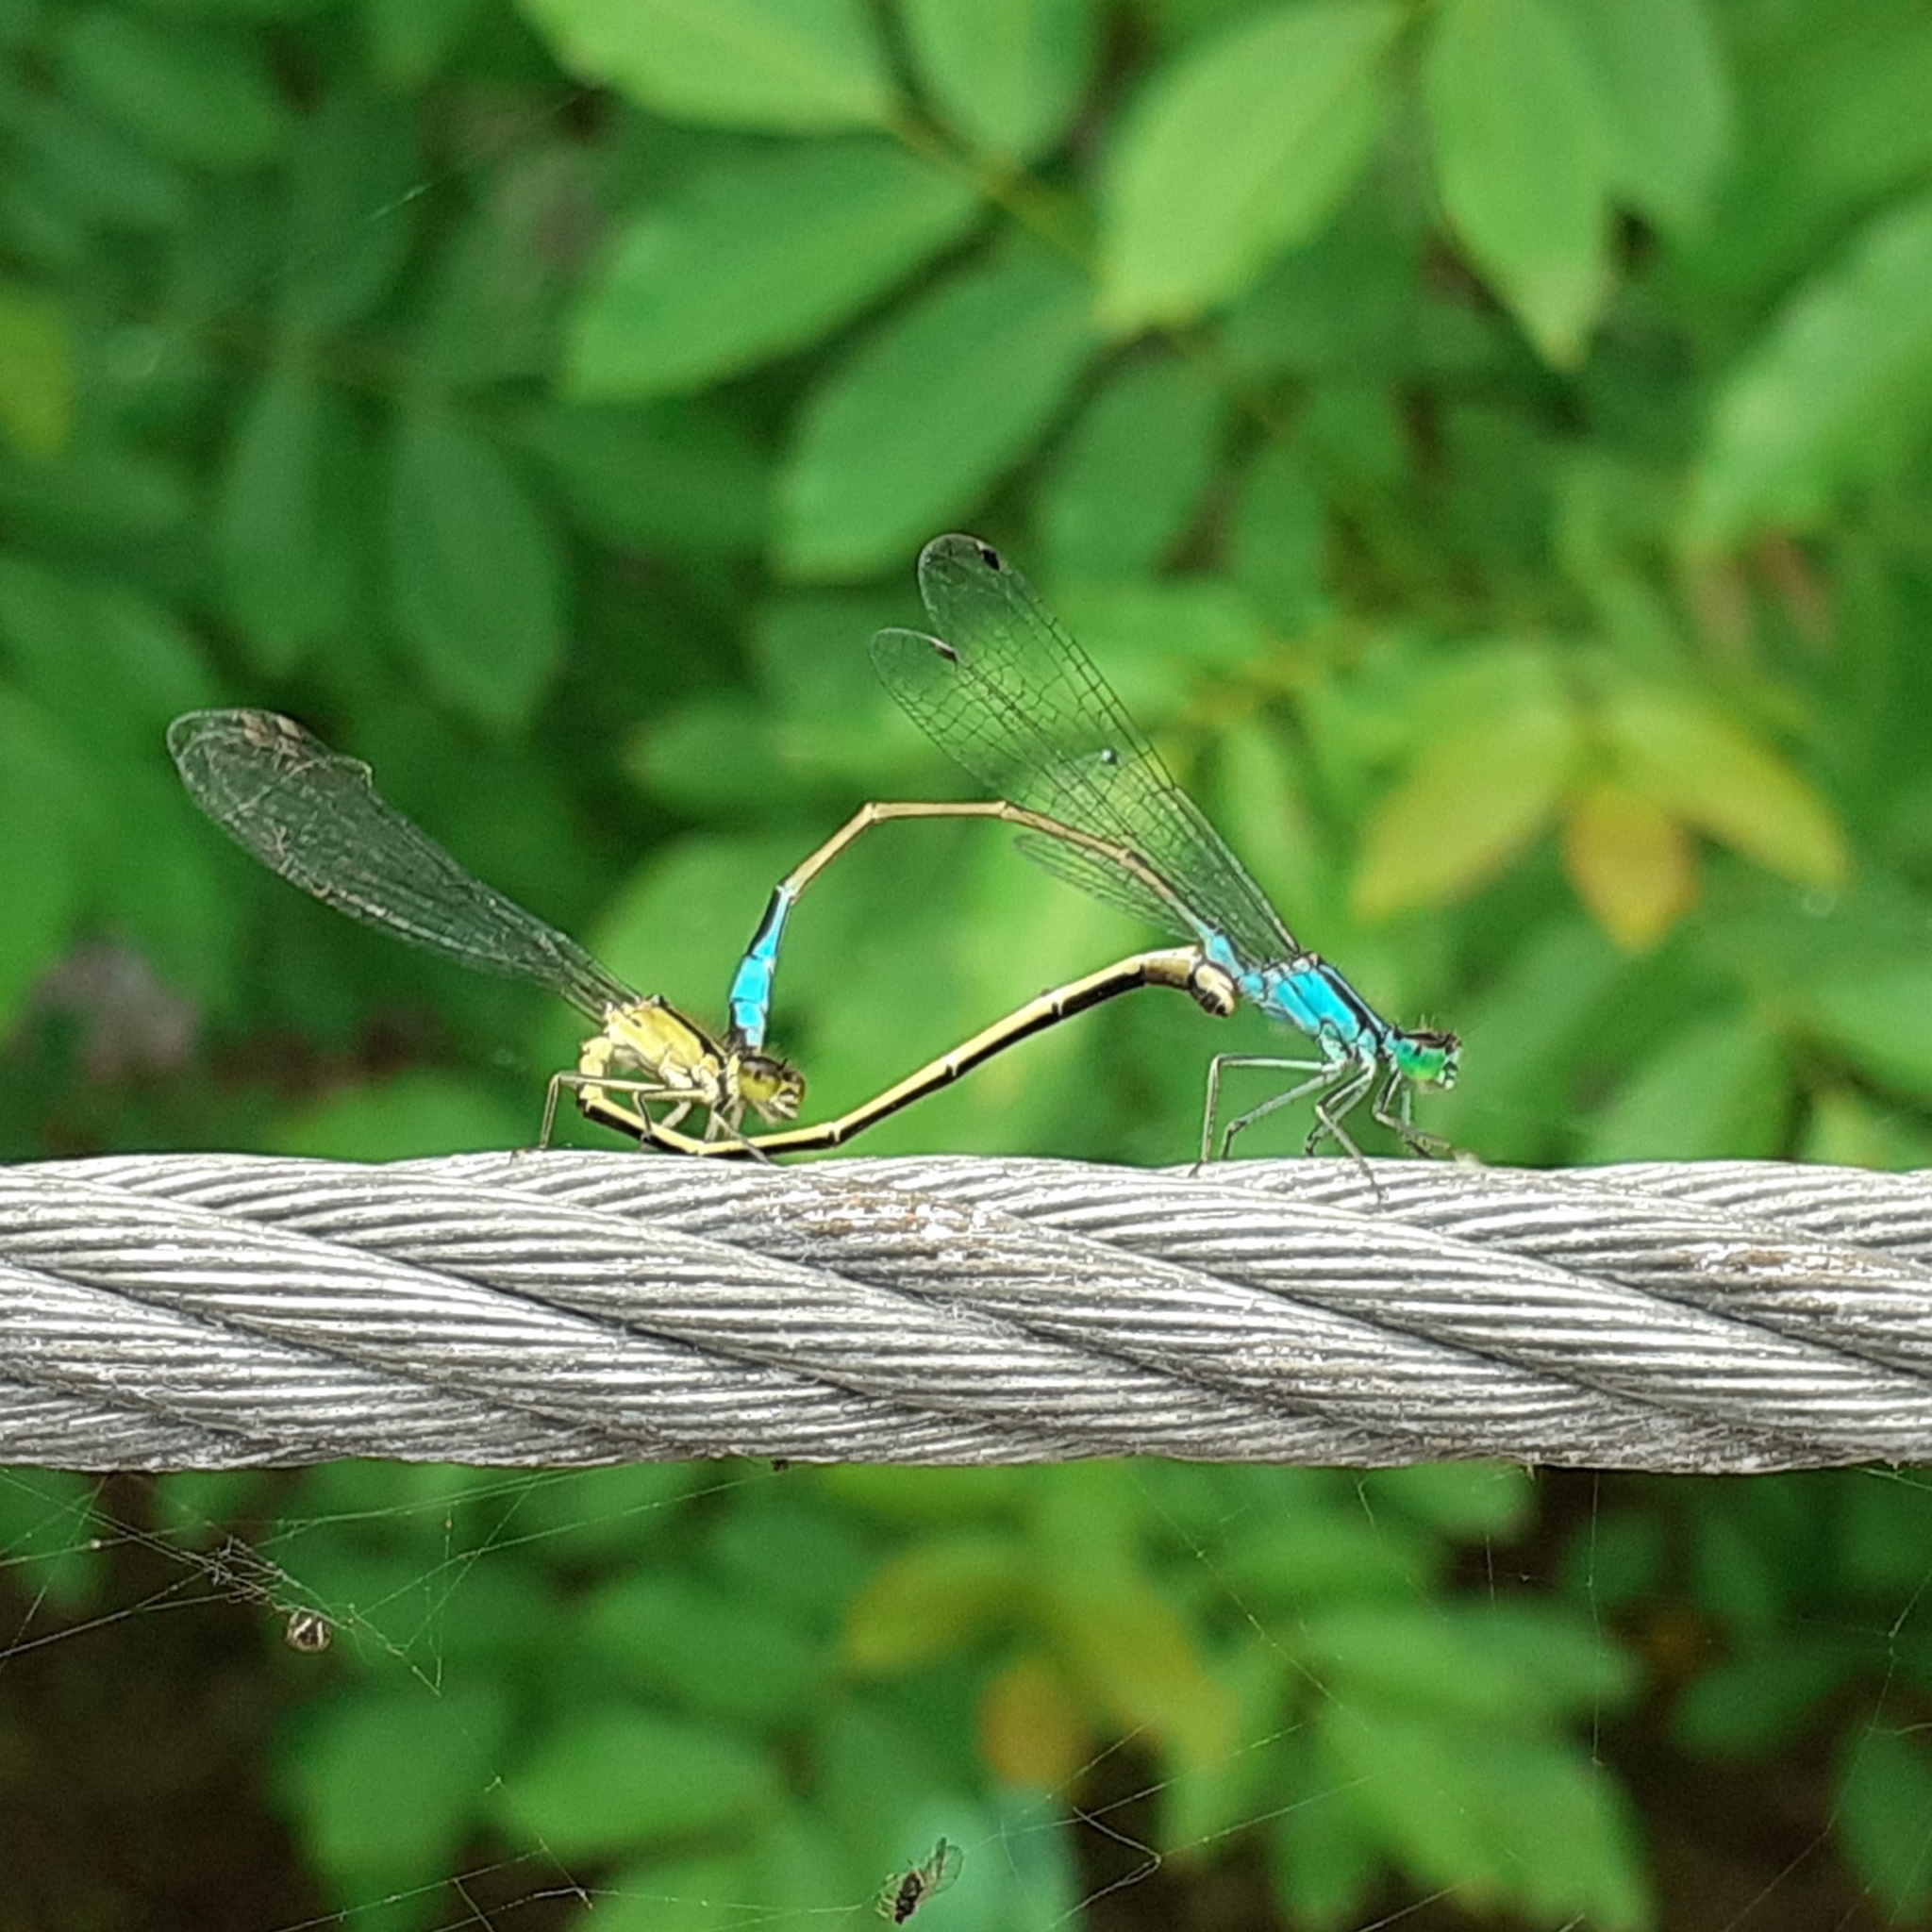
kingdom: Animalia
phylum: Arthropoda
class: Insecta
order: Odonata
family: Coenagrionidae
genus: Ischnura
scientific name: Ischnura elegans
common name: Blue-tailed damselfly
